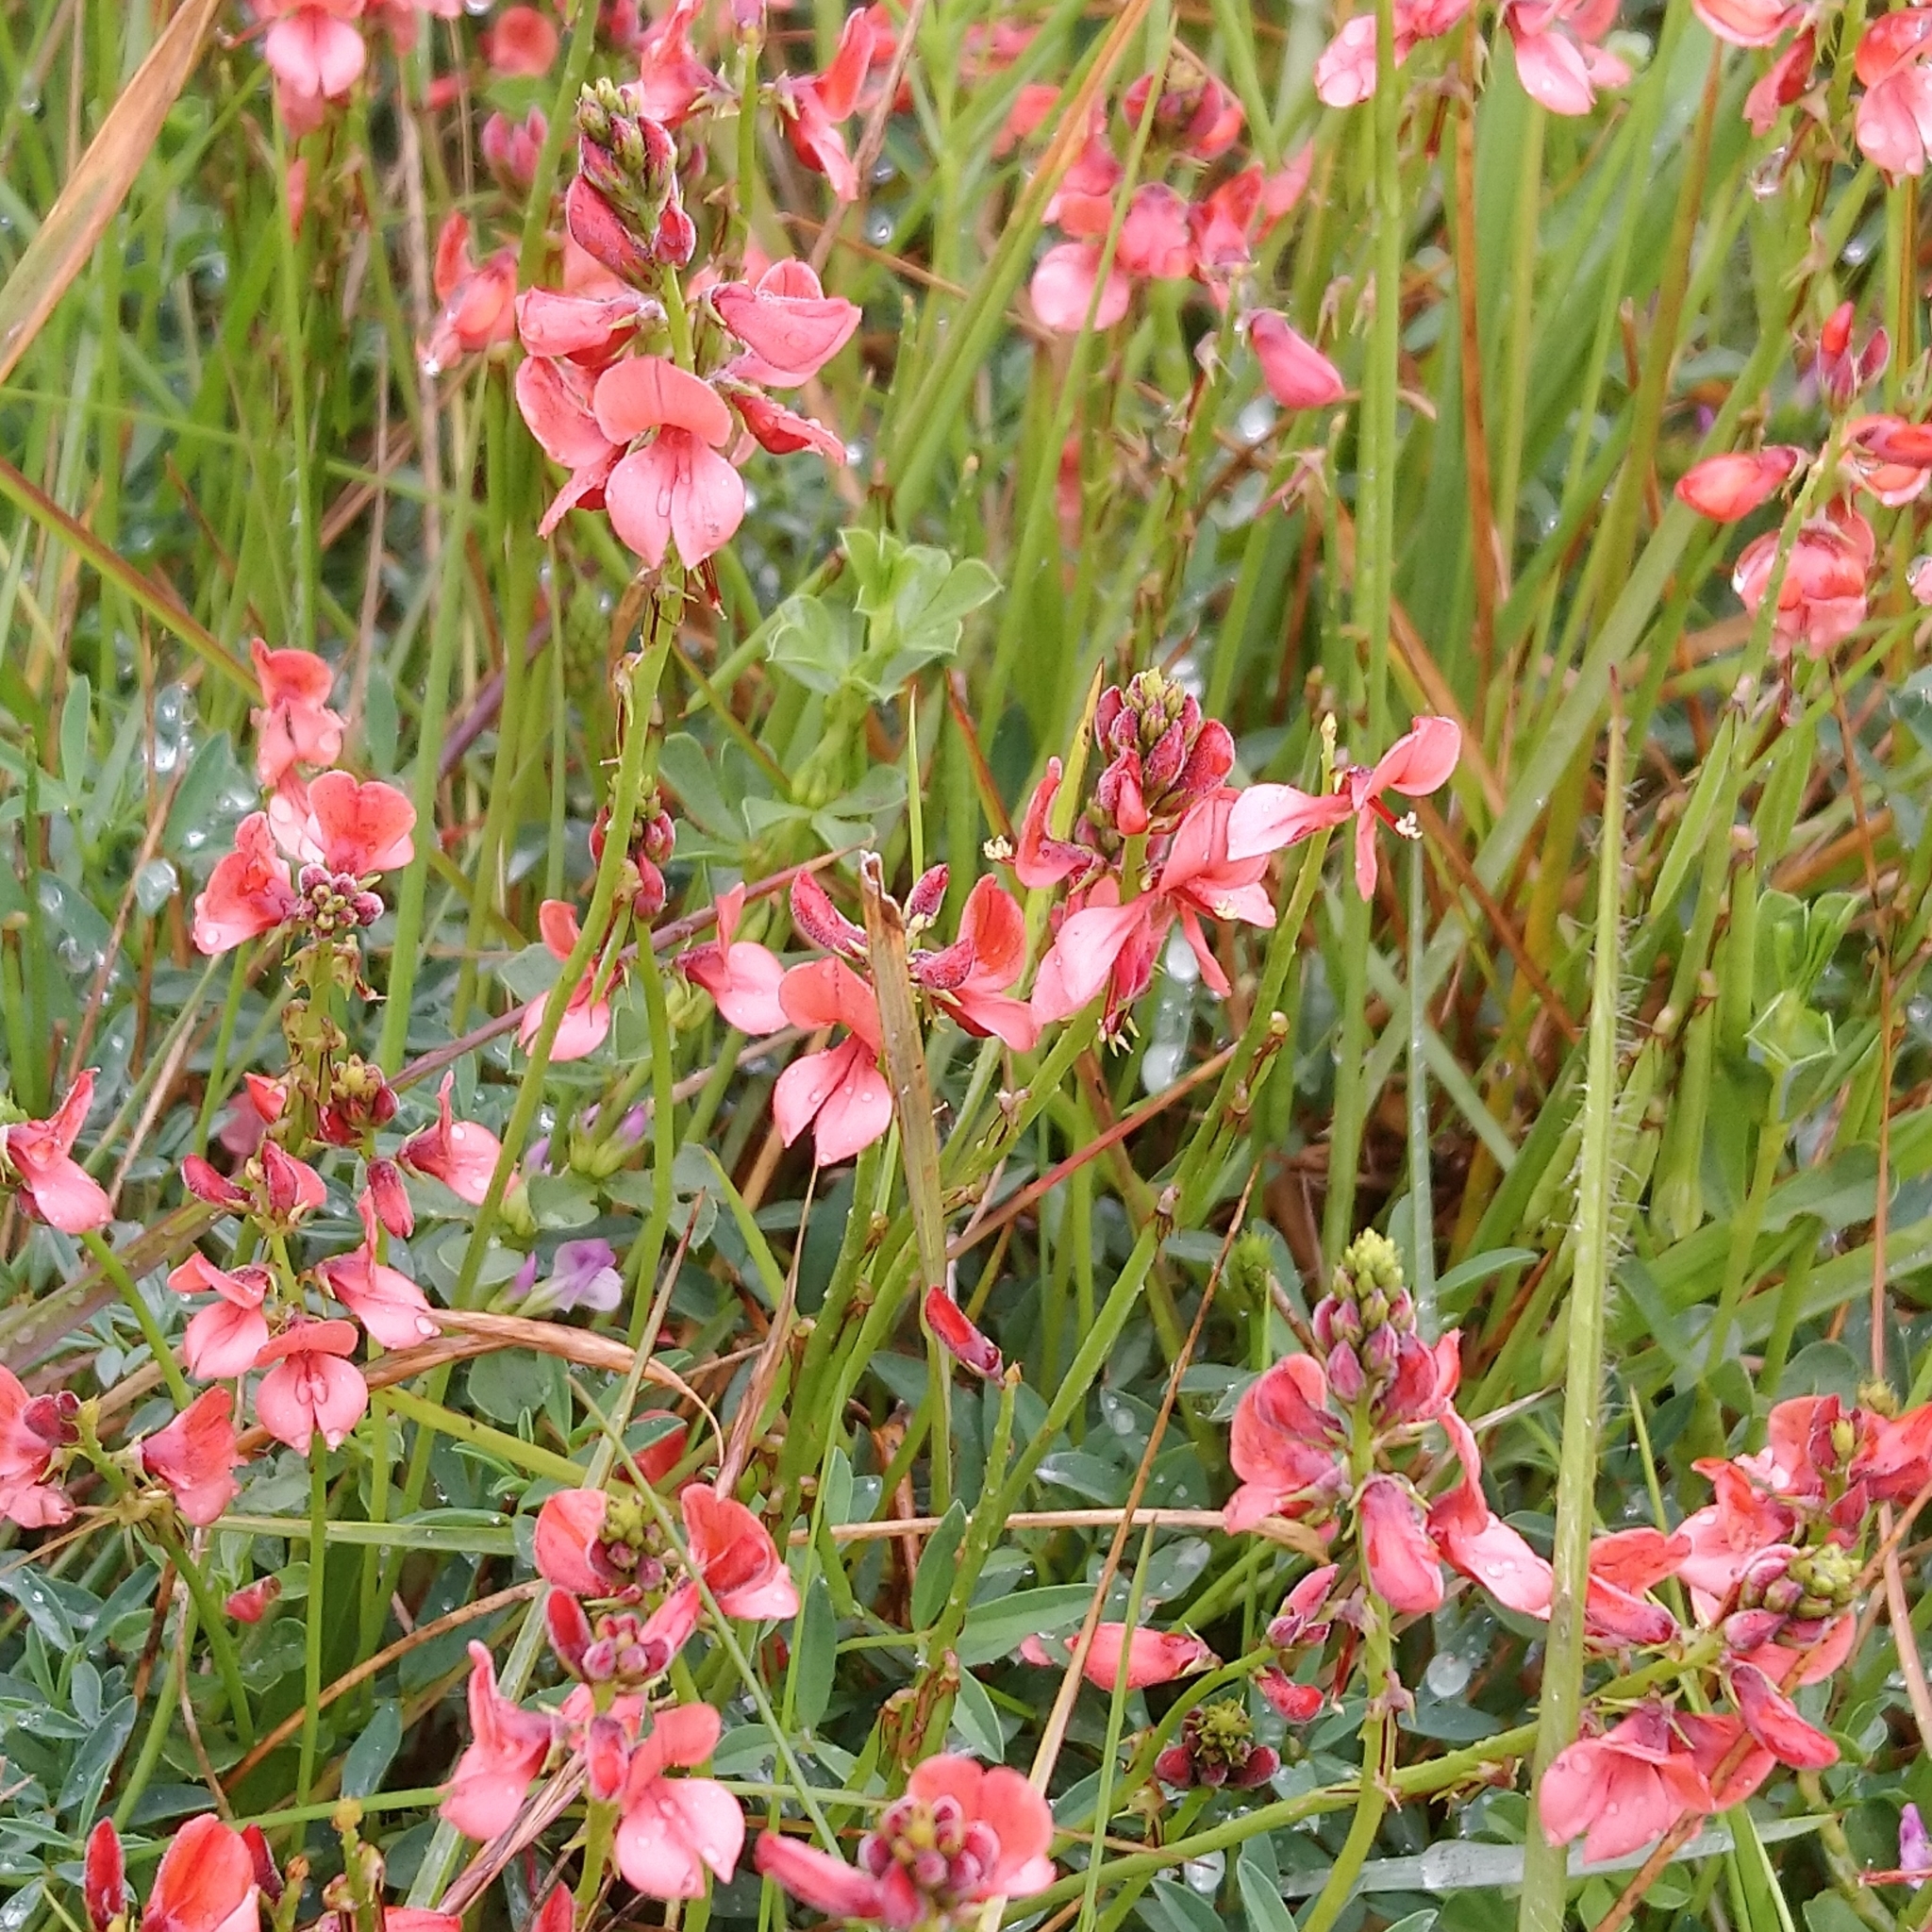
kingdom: Plantae
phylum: Tracheophyta
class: Magnoliopsida
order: Fabales
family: Fabaceae
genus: Indigofera
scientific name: Indigofera heterophylla
